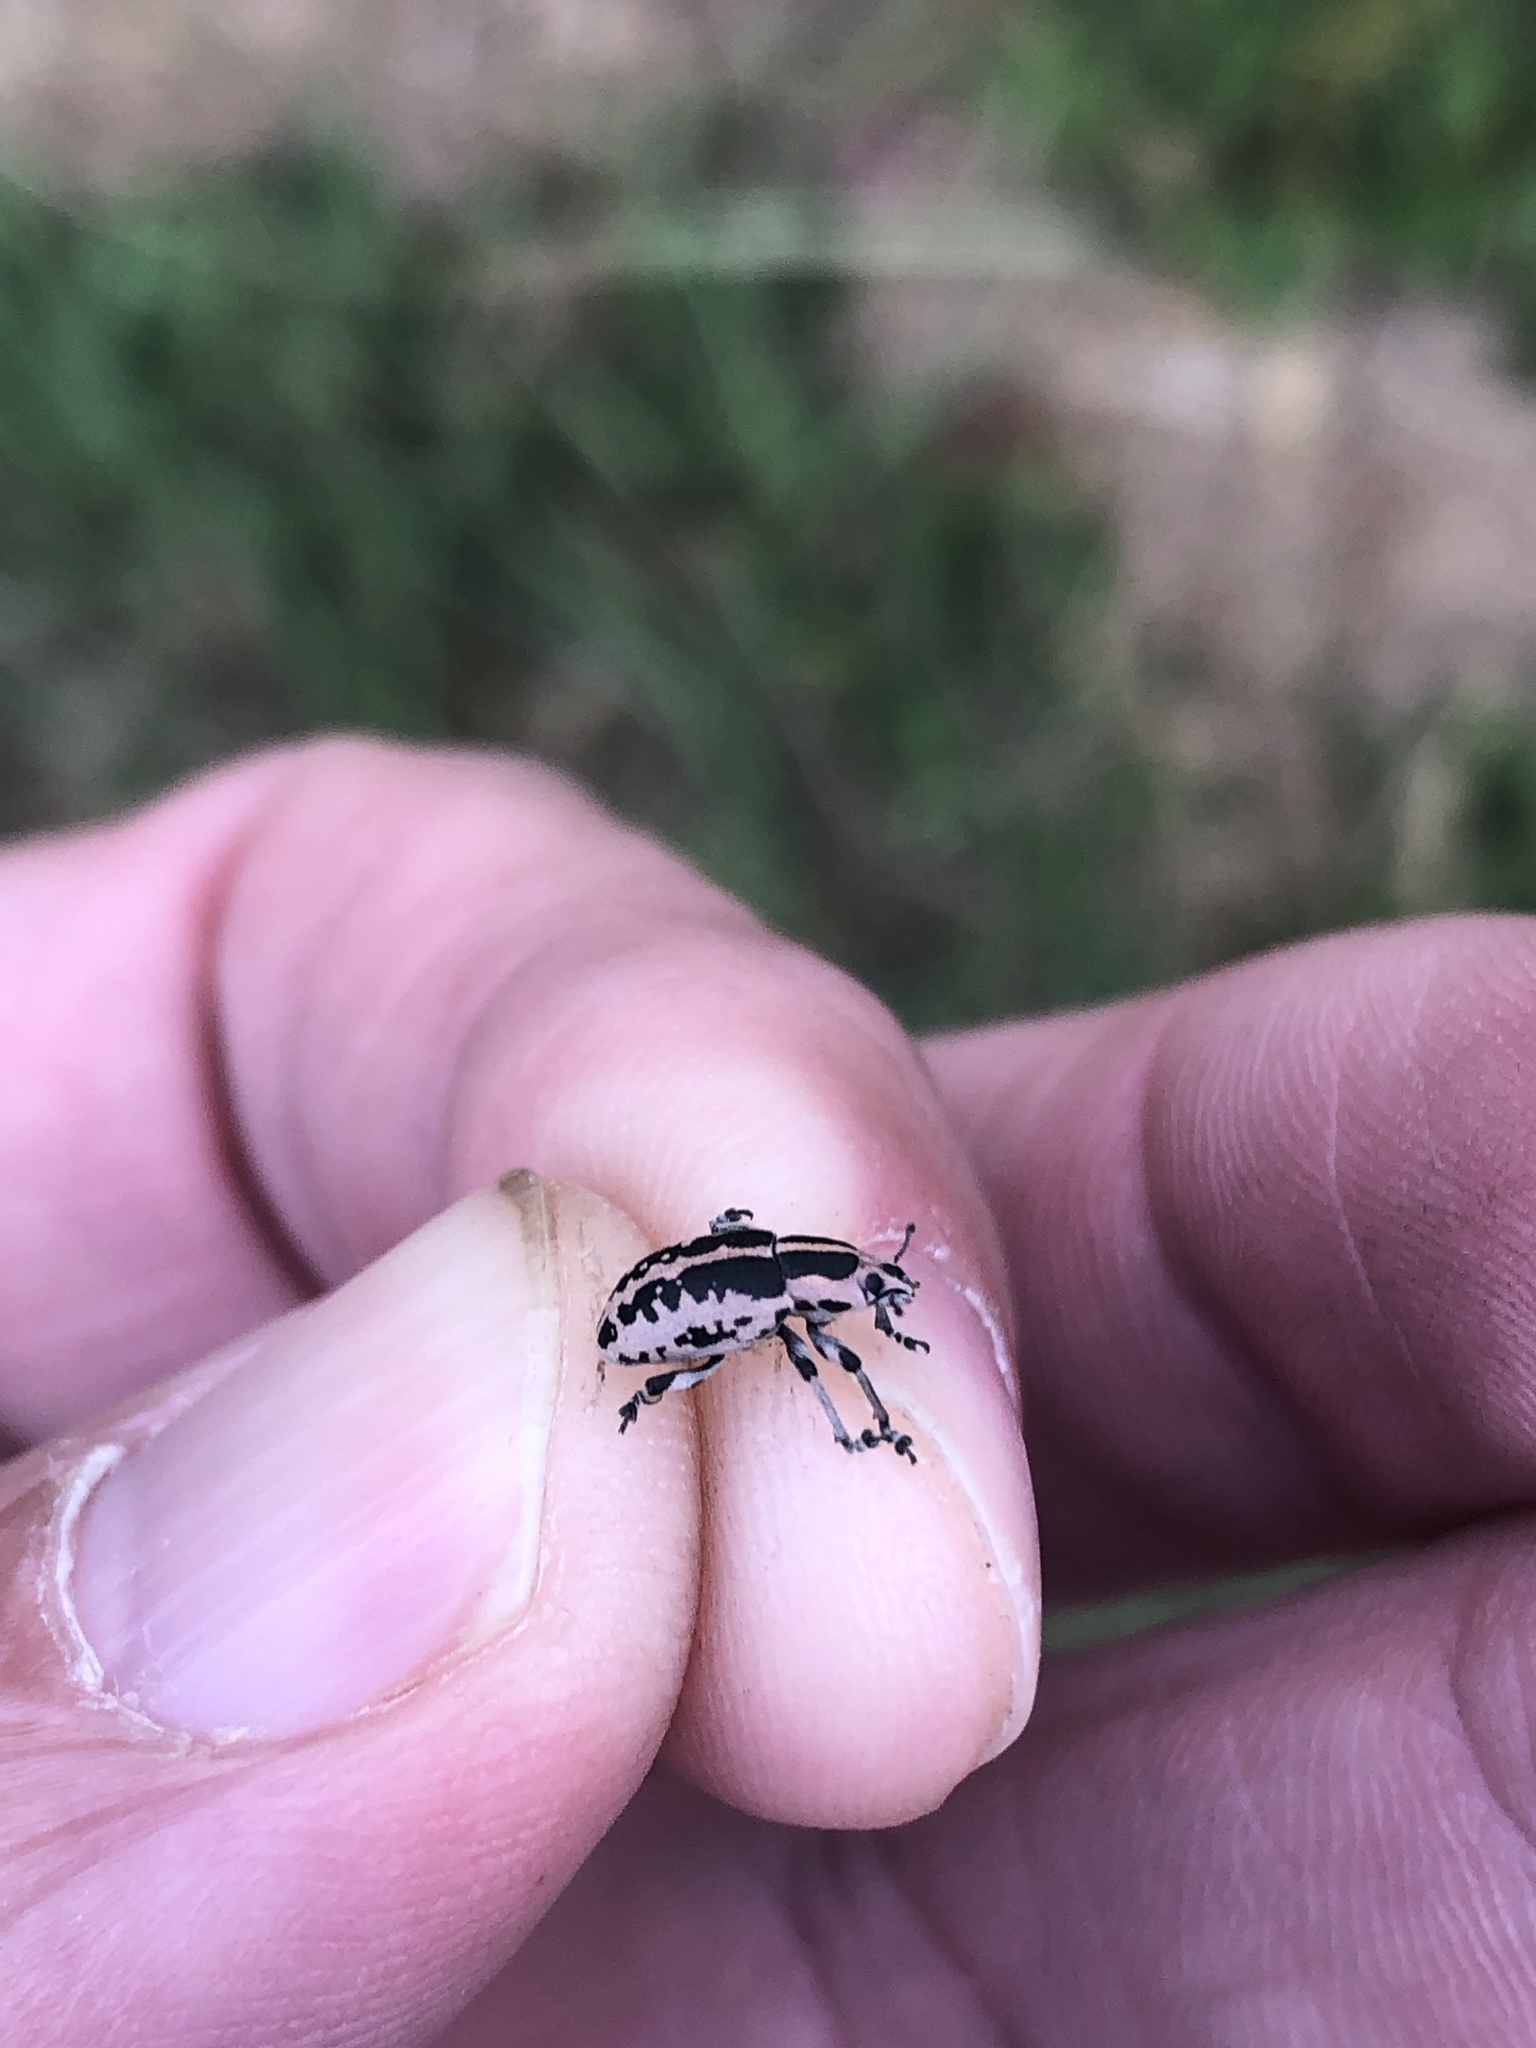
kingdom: Animalia
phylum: Arthropoda
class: Insecta
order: Coleoptera
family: Curculionidae
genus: Eudiagogus
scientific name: Eudiagogus rosenschoeldi
